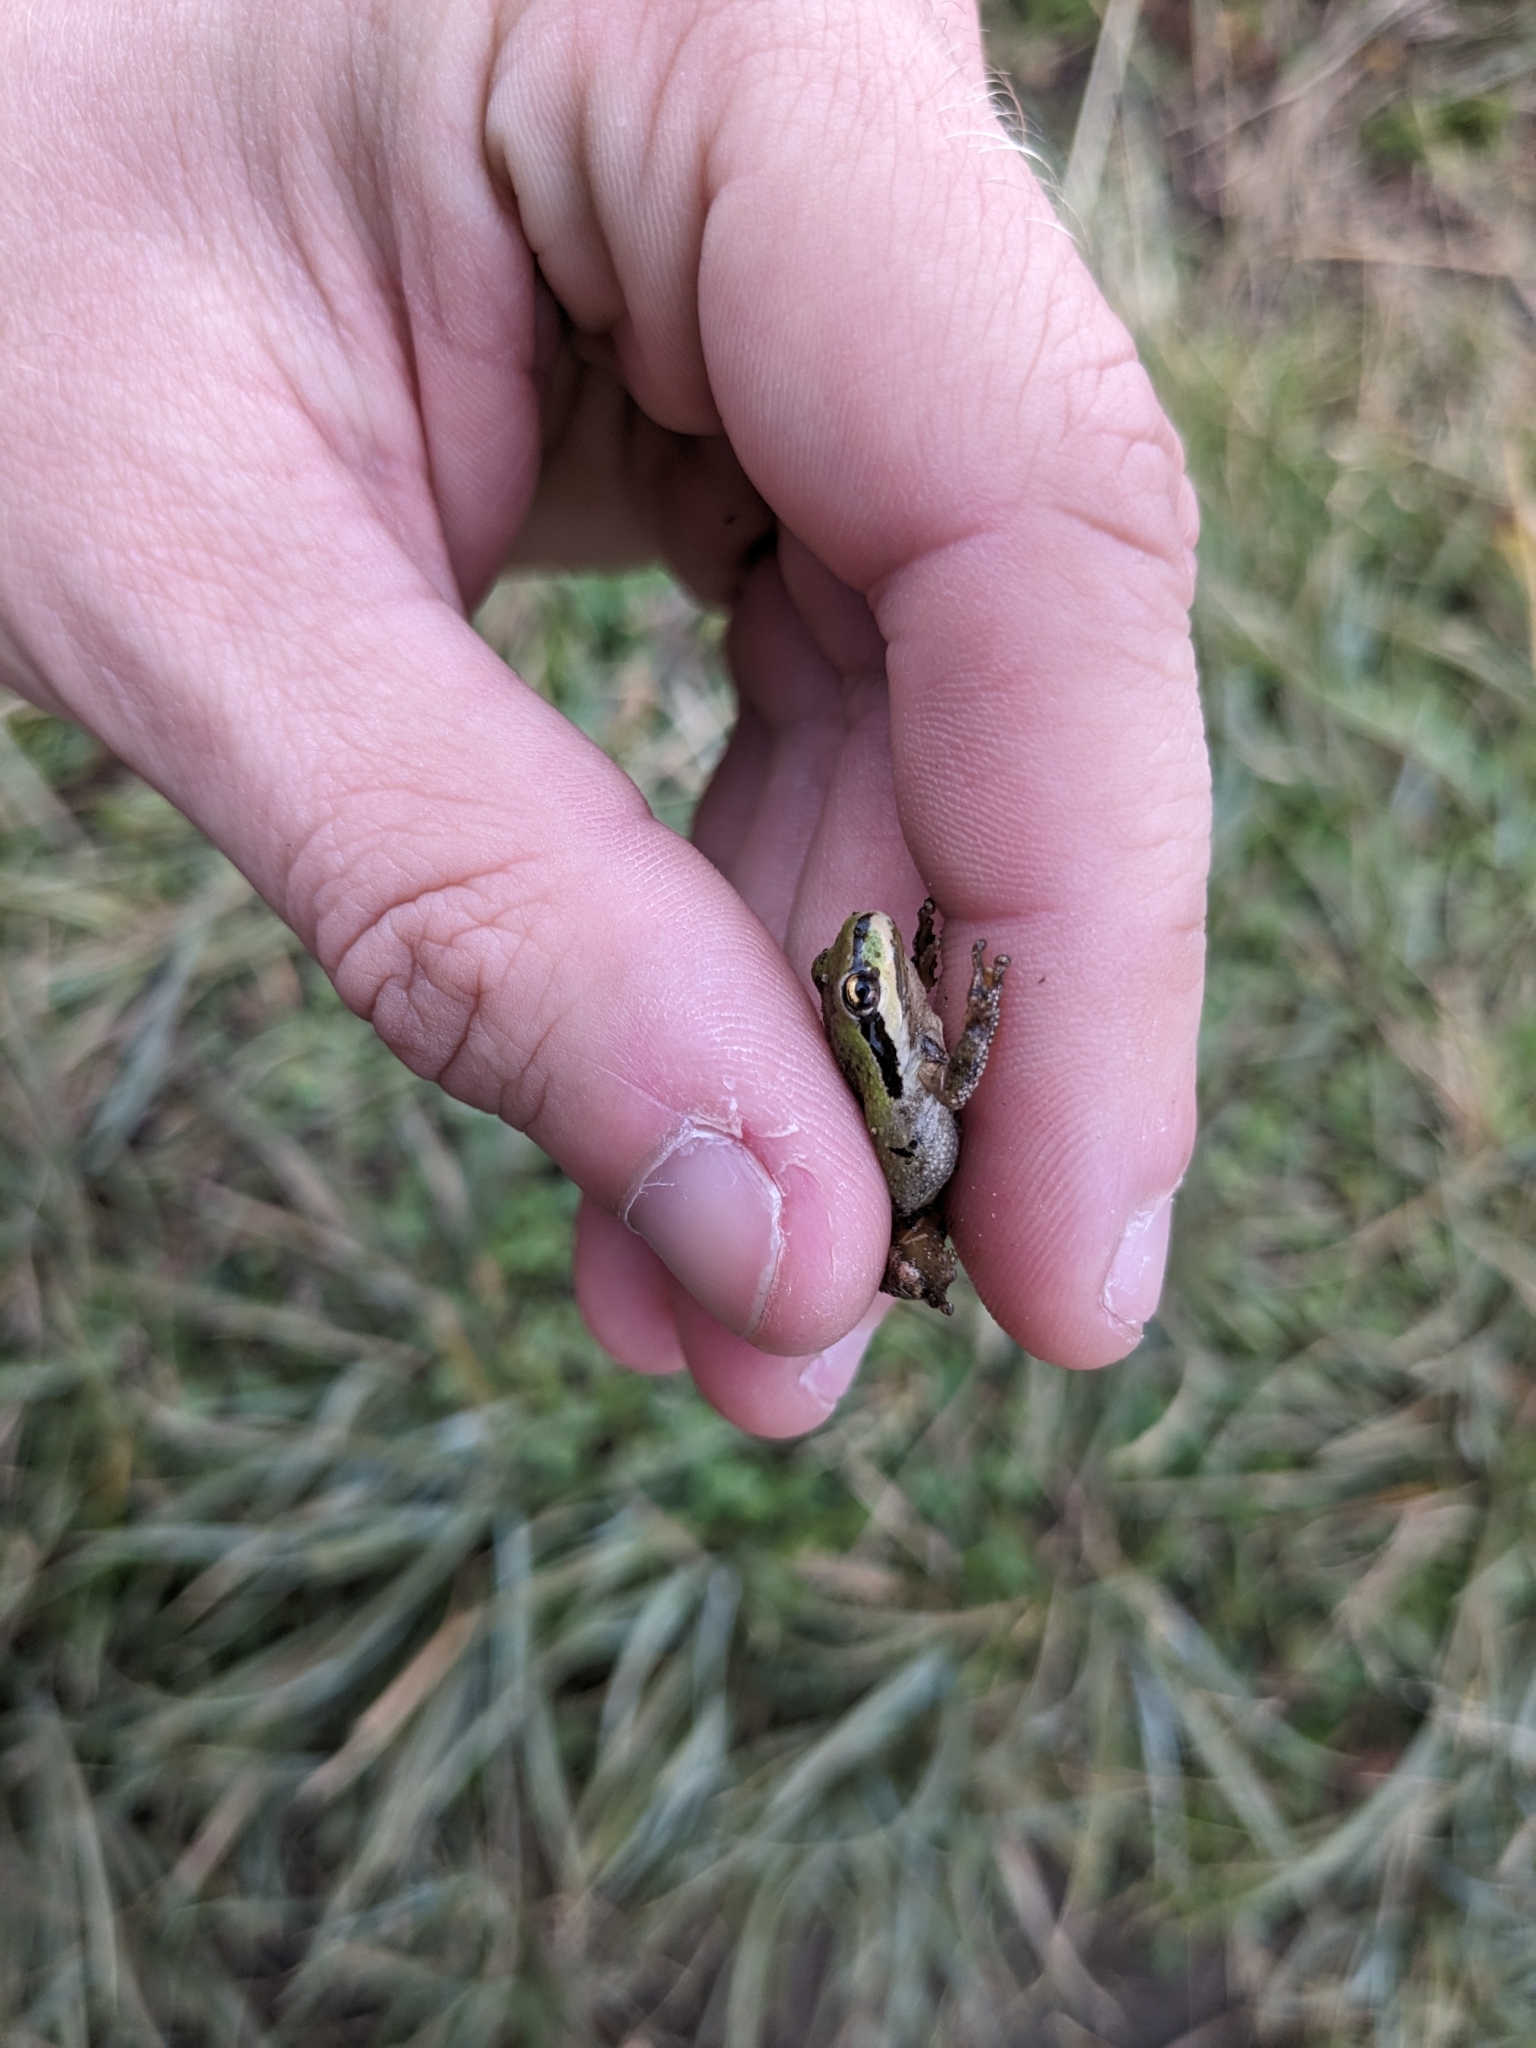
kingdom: Animalia
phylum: Chordata
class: Amphibia
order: Anura
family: Hylidae
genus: Pseudacris
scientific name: Pseudacris regilla
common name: Pacific chorus frog
